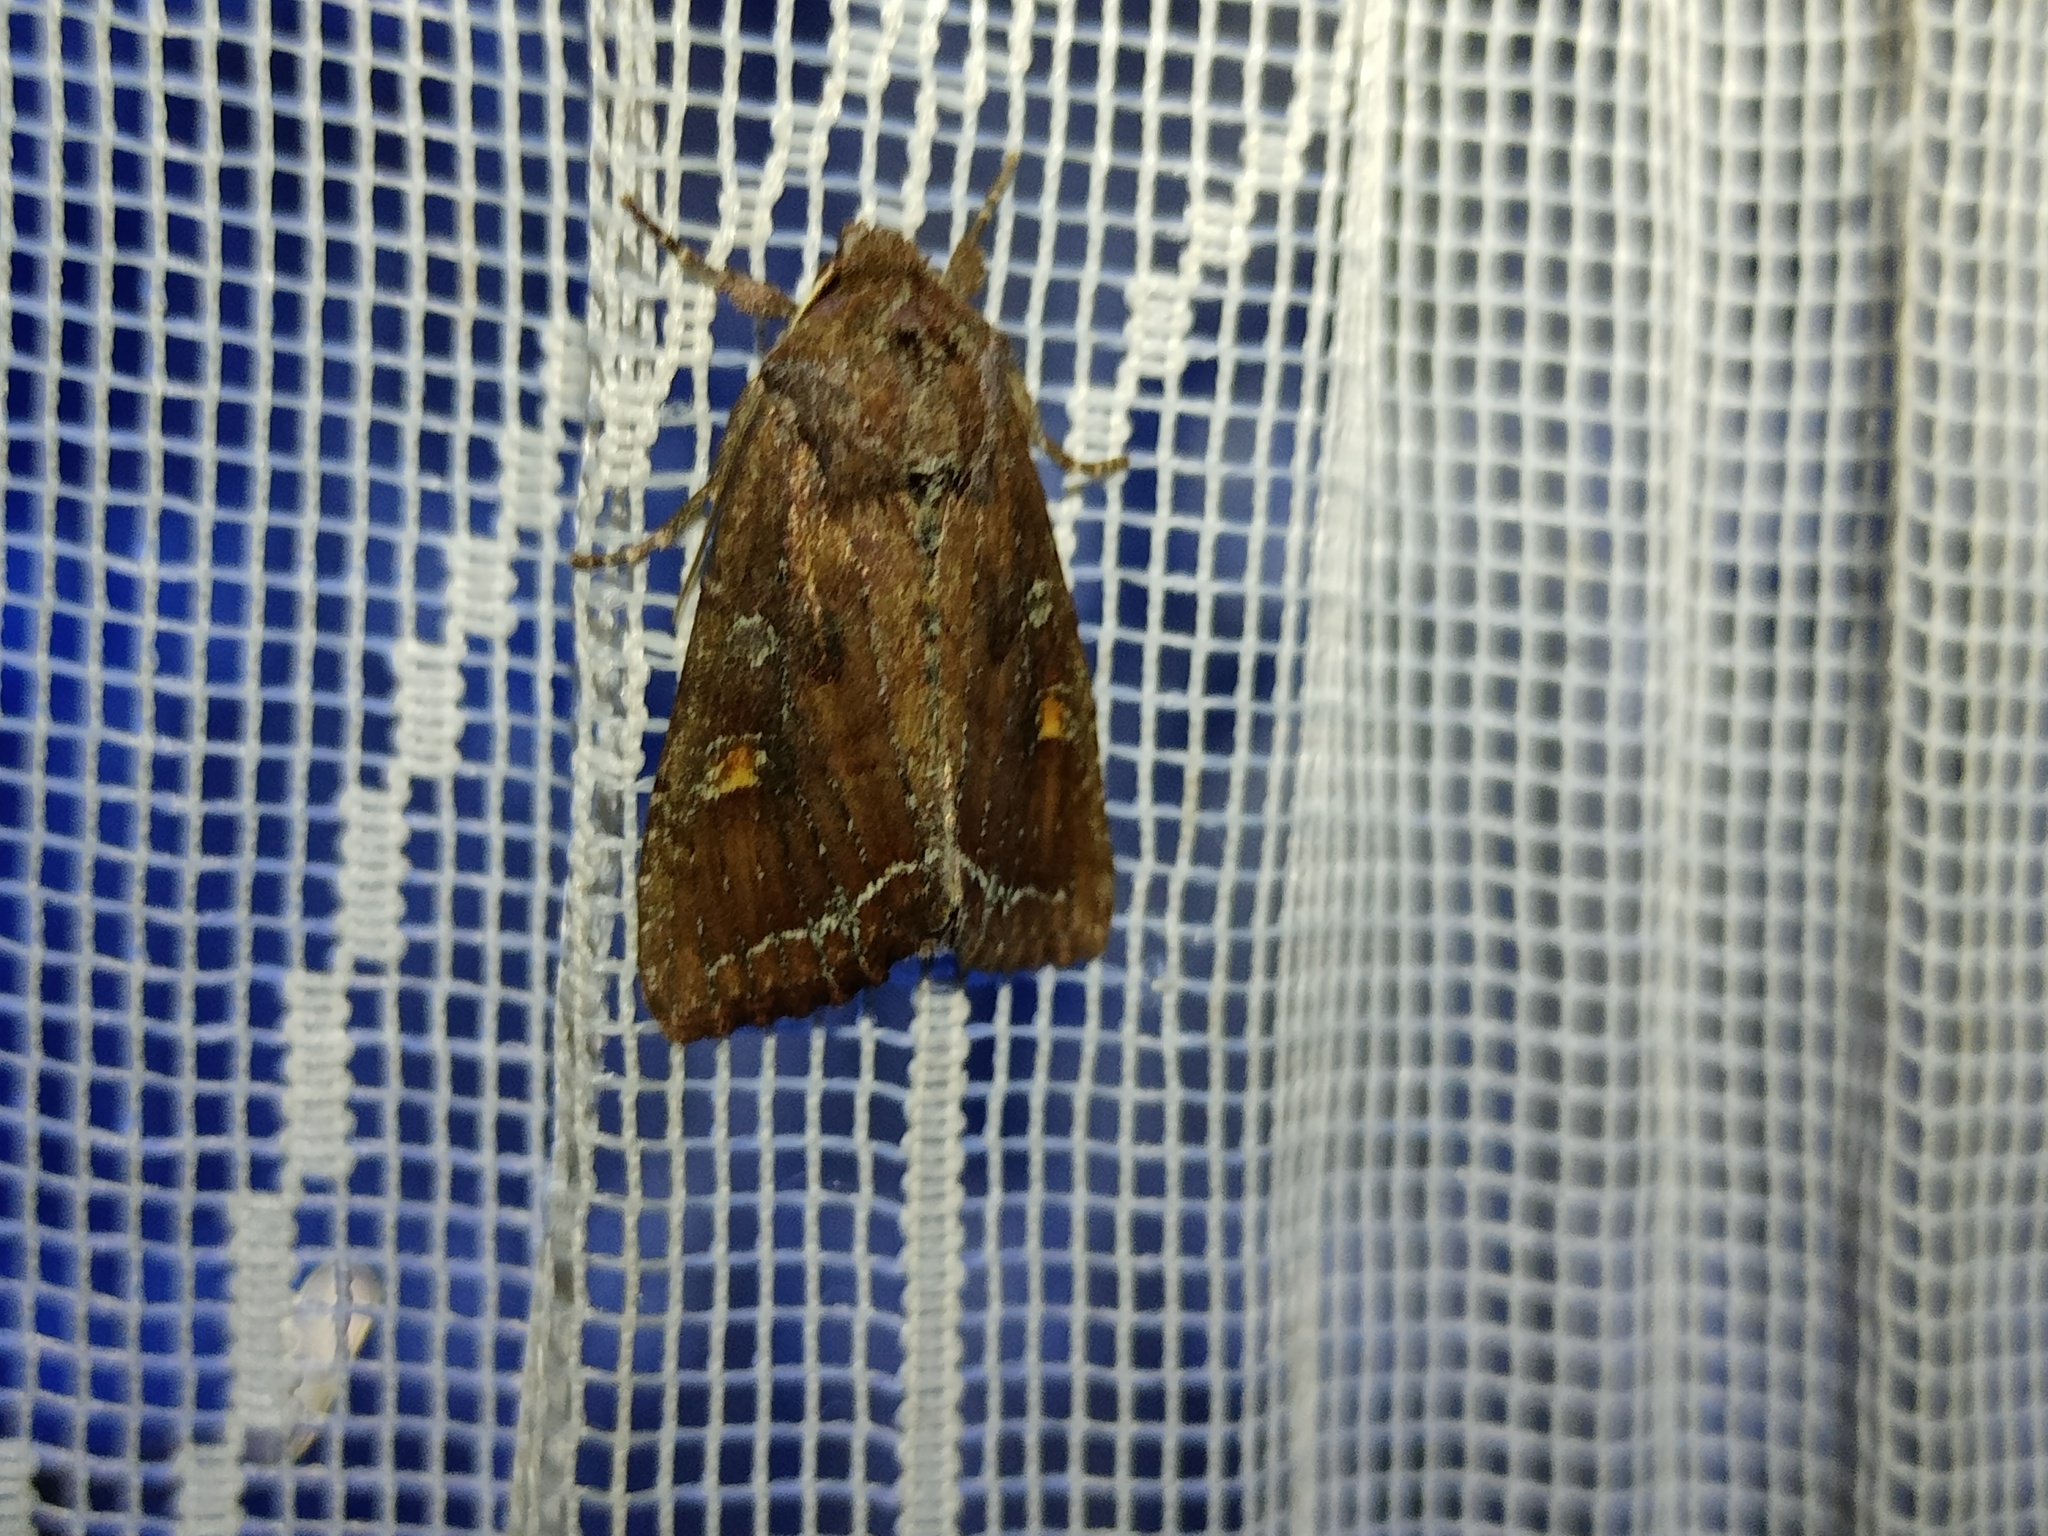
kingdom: Animalia
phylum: Arthropoda
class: Insecta
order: Lepidoptera
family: Noctuidae
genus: Lacanobia
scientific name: Lacanobia oleracea
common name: Bright-line brown-eye
